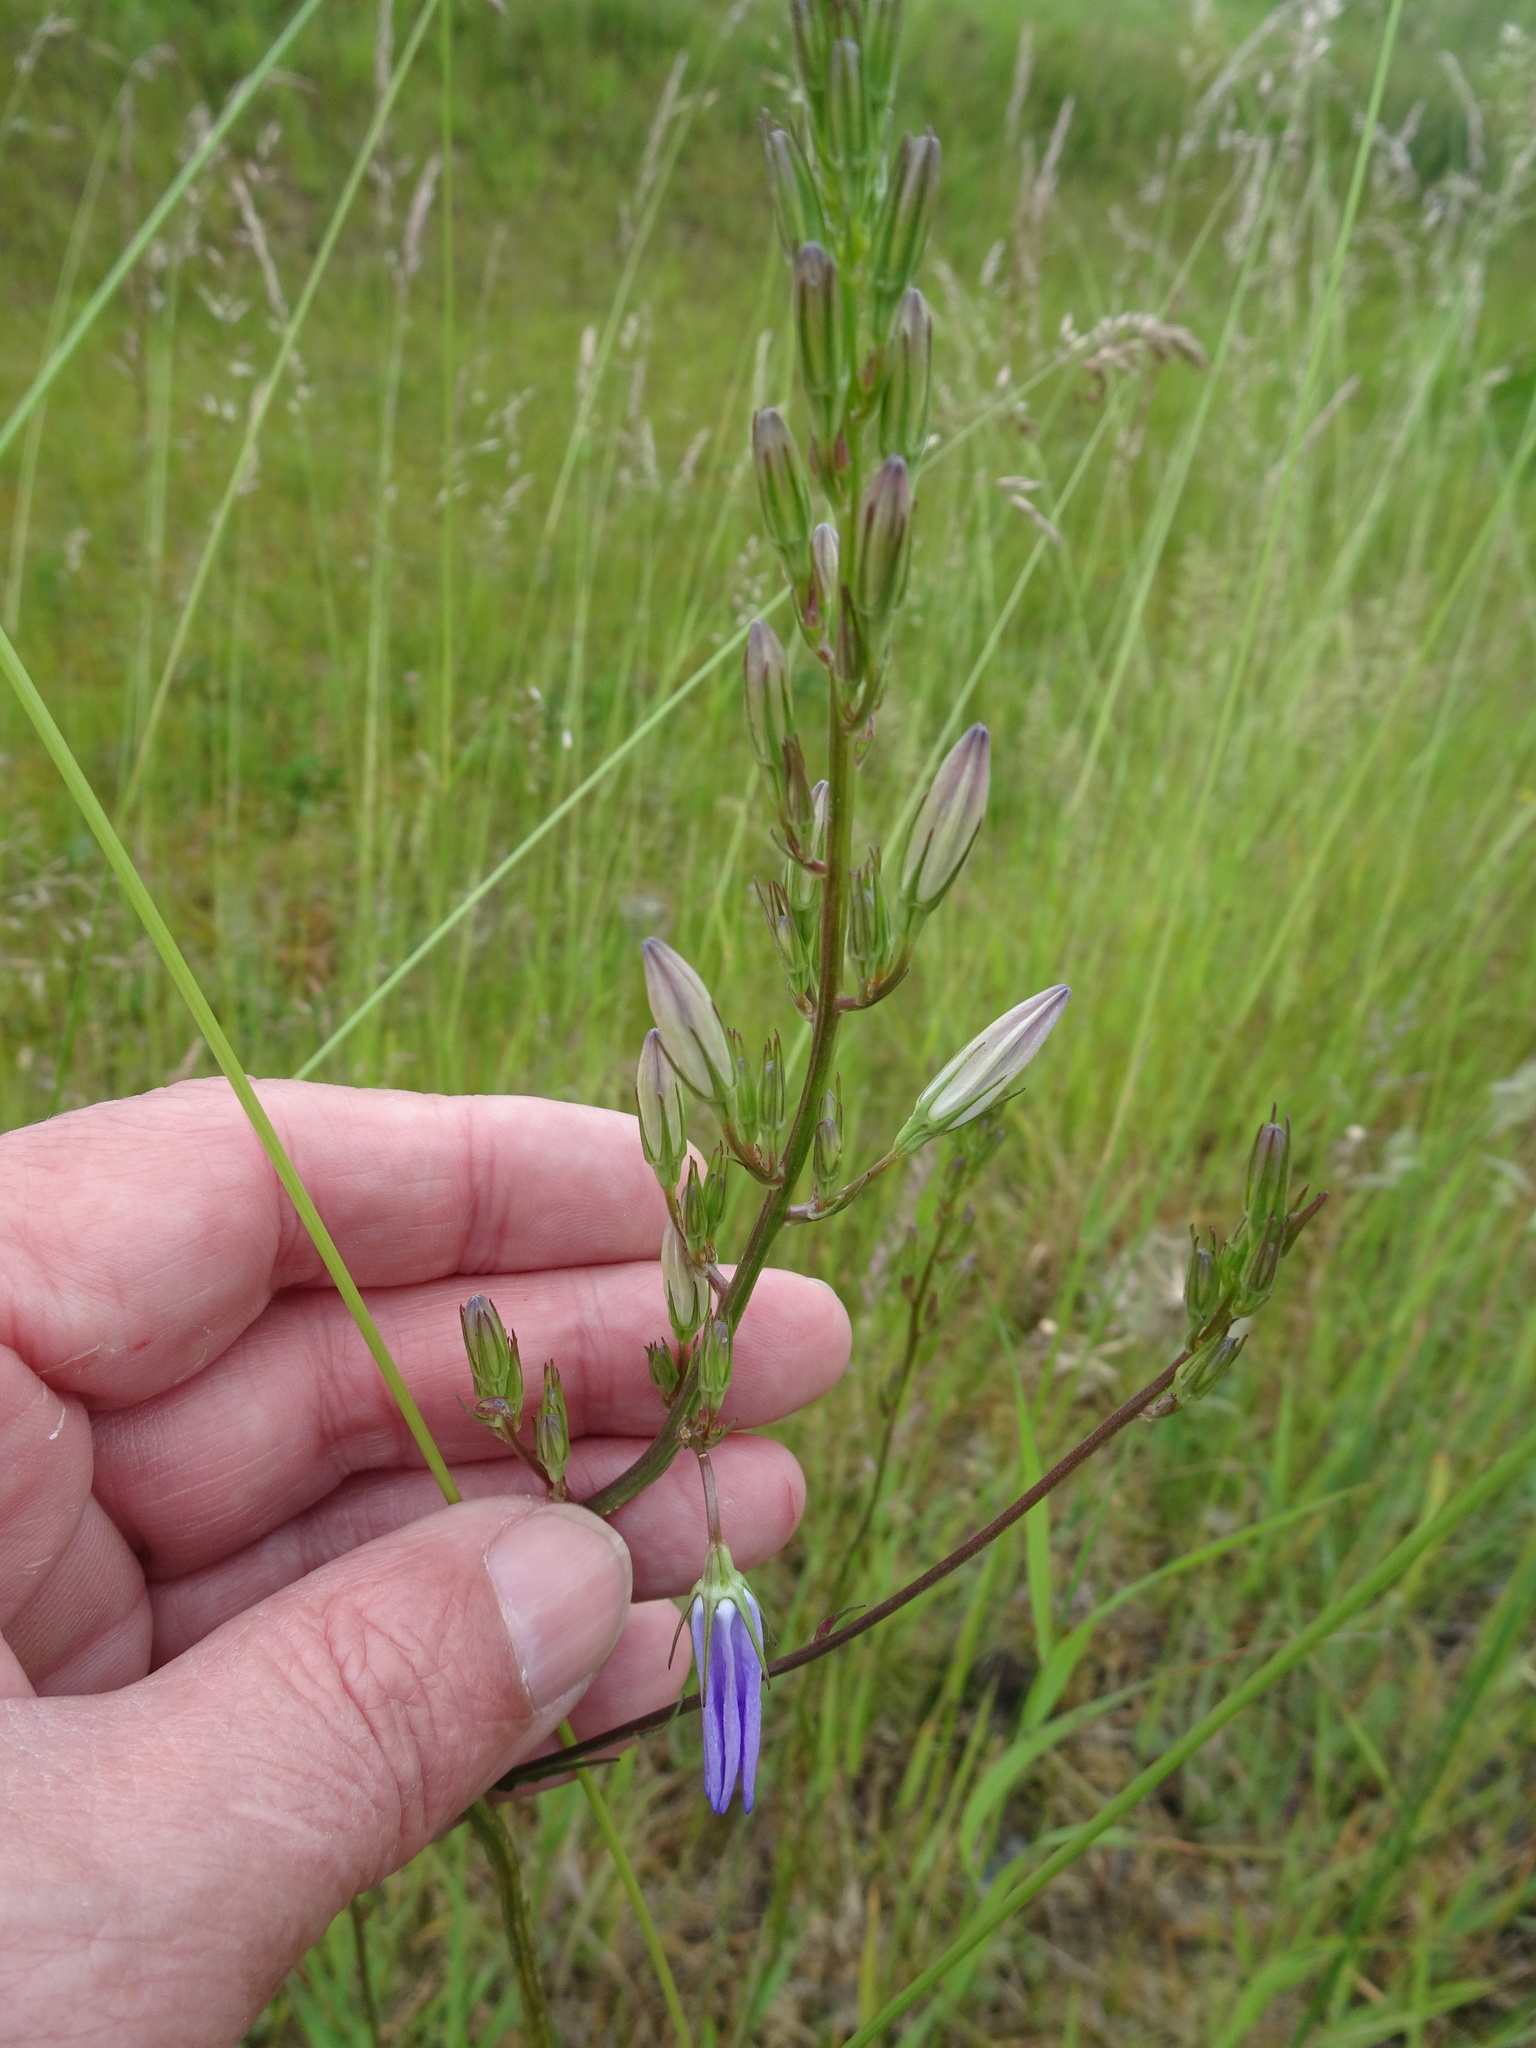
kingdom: Plantae
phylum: Tracheophyta
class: Magnoliopsida
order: Asterales
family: Campanulaceae
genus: Campanula
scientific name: Campanula rapunculus
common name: Rampion bellflower
